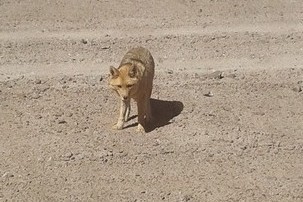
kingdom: Animalia
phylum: Chordata
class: Mammalia
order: Carnivora
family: Canidae
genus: Lycalopex
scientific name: Lycalopex culpaeus
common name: Culpeo
